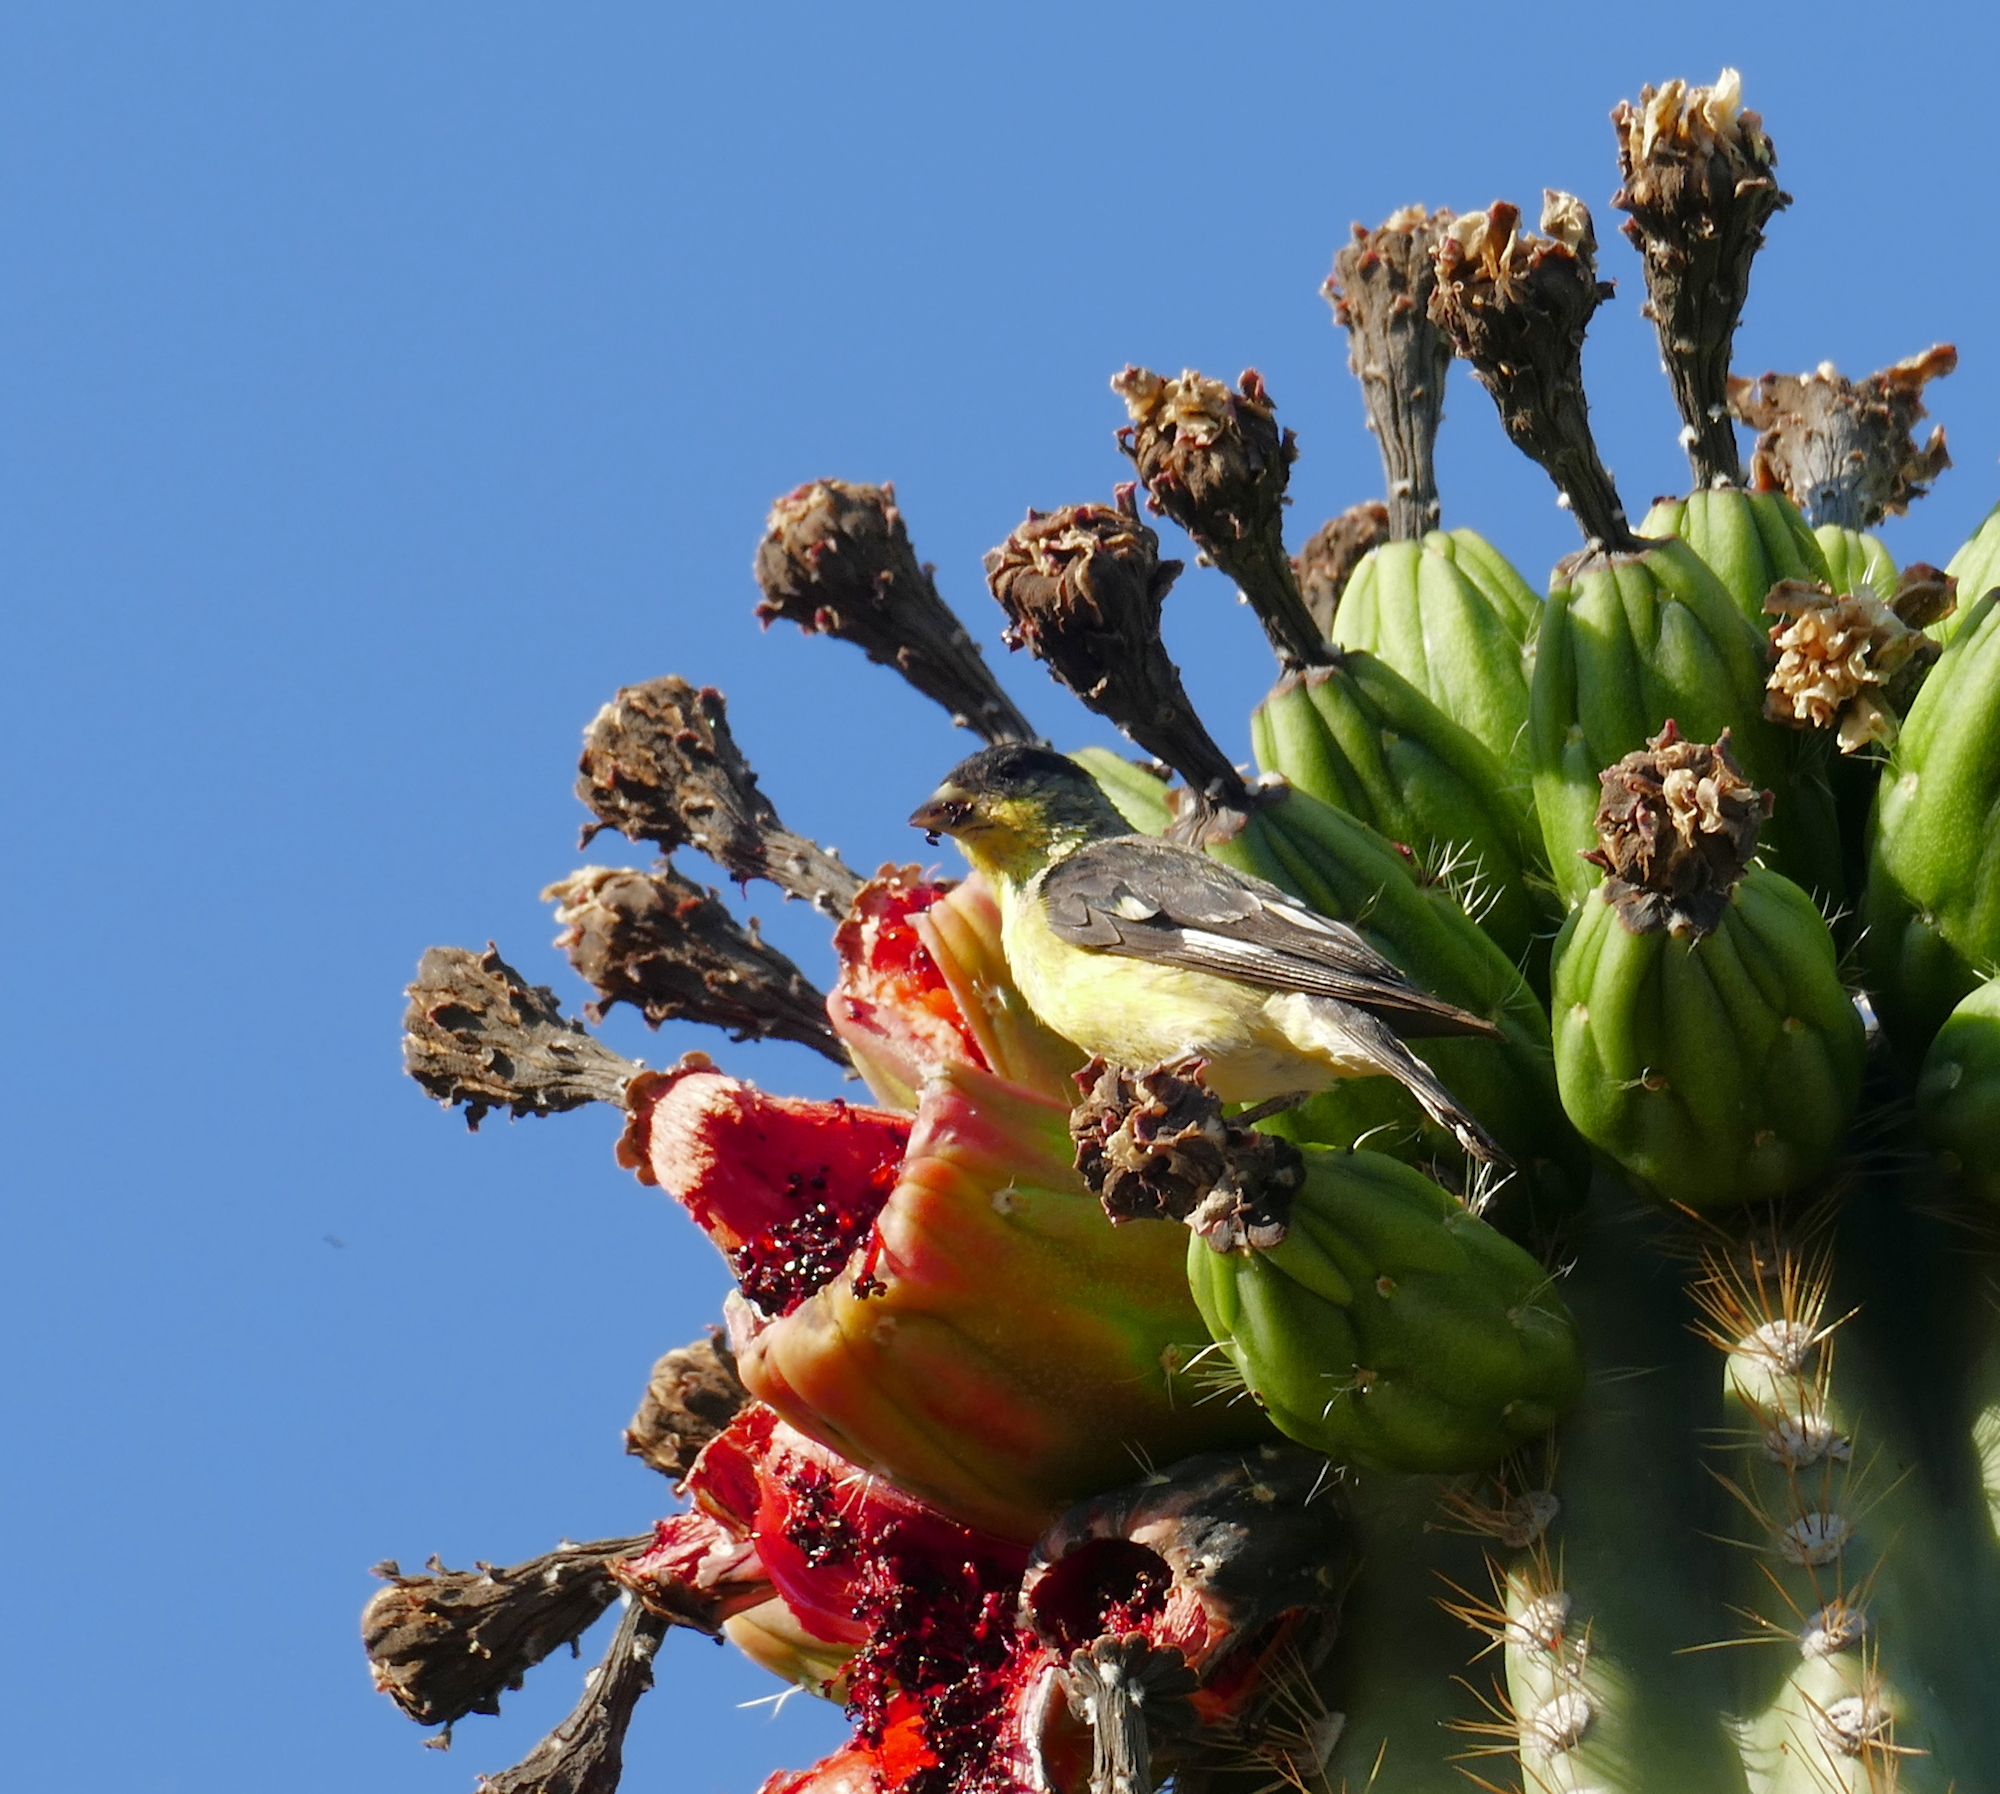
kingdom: Animalia
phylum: Chordata
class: Aves
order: Passeriformes
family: Fringillidae
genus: Spinus
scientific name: Spinus psaltria
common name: Lesser goldfinch
